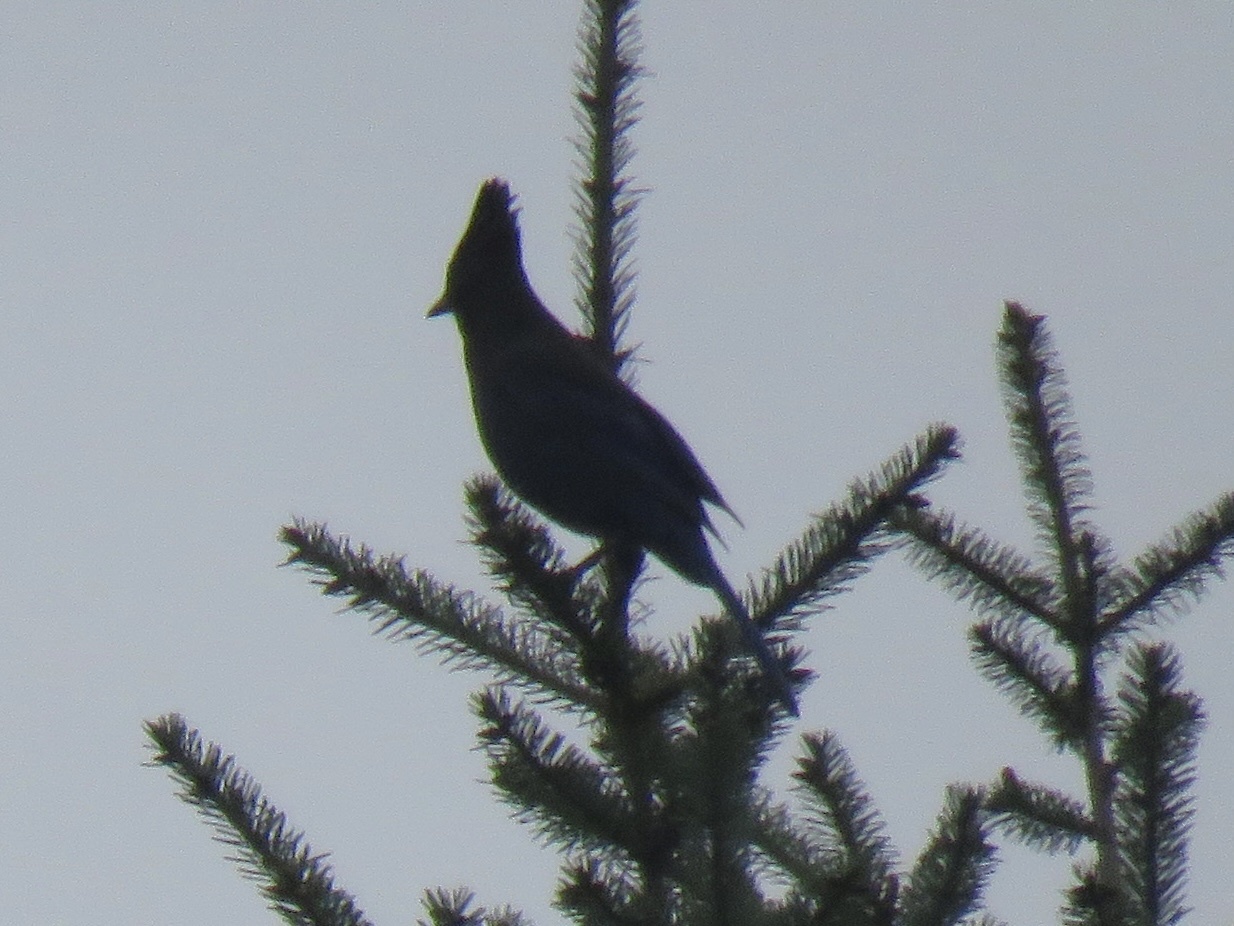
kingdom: Animalia
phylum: Chordata
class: Aves
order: Passeriformes
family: Corvidae
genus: Cyanocitta
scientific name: Cyanocitta stelleri
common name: Steller's jay
